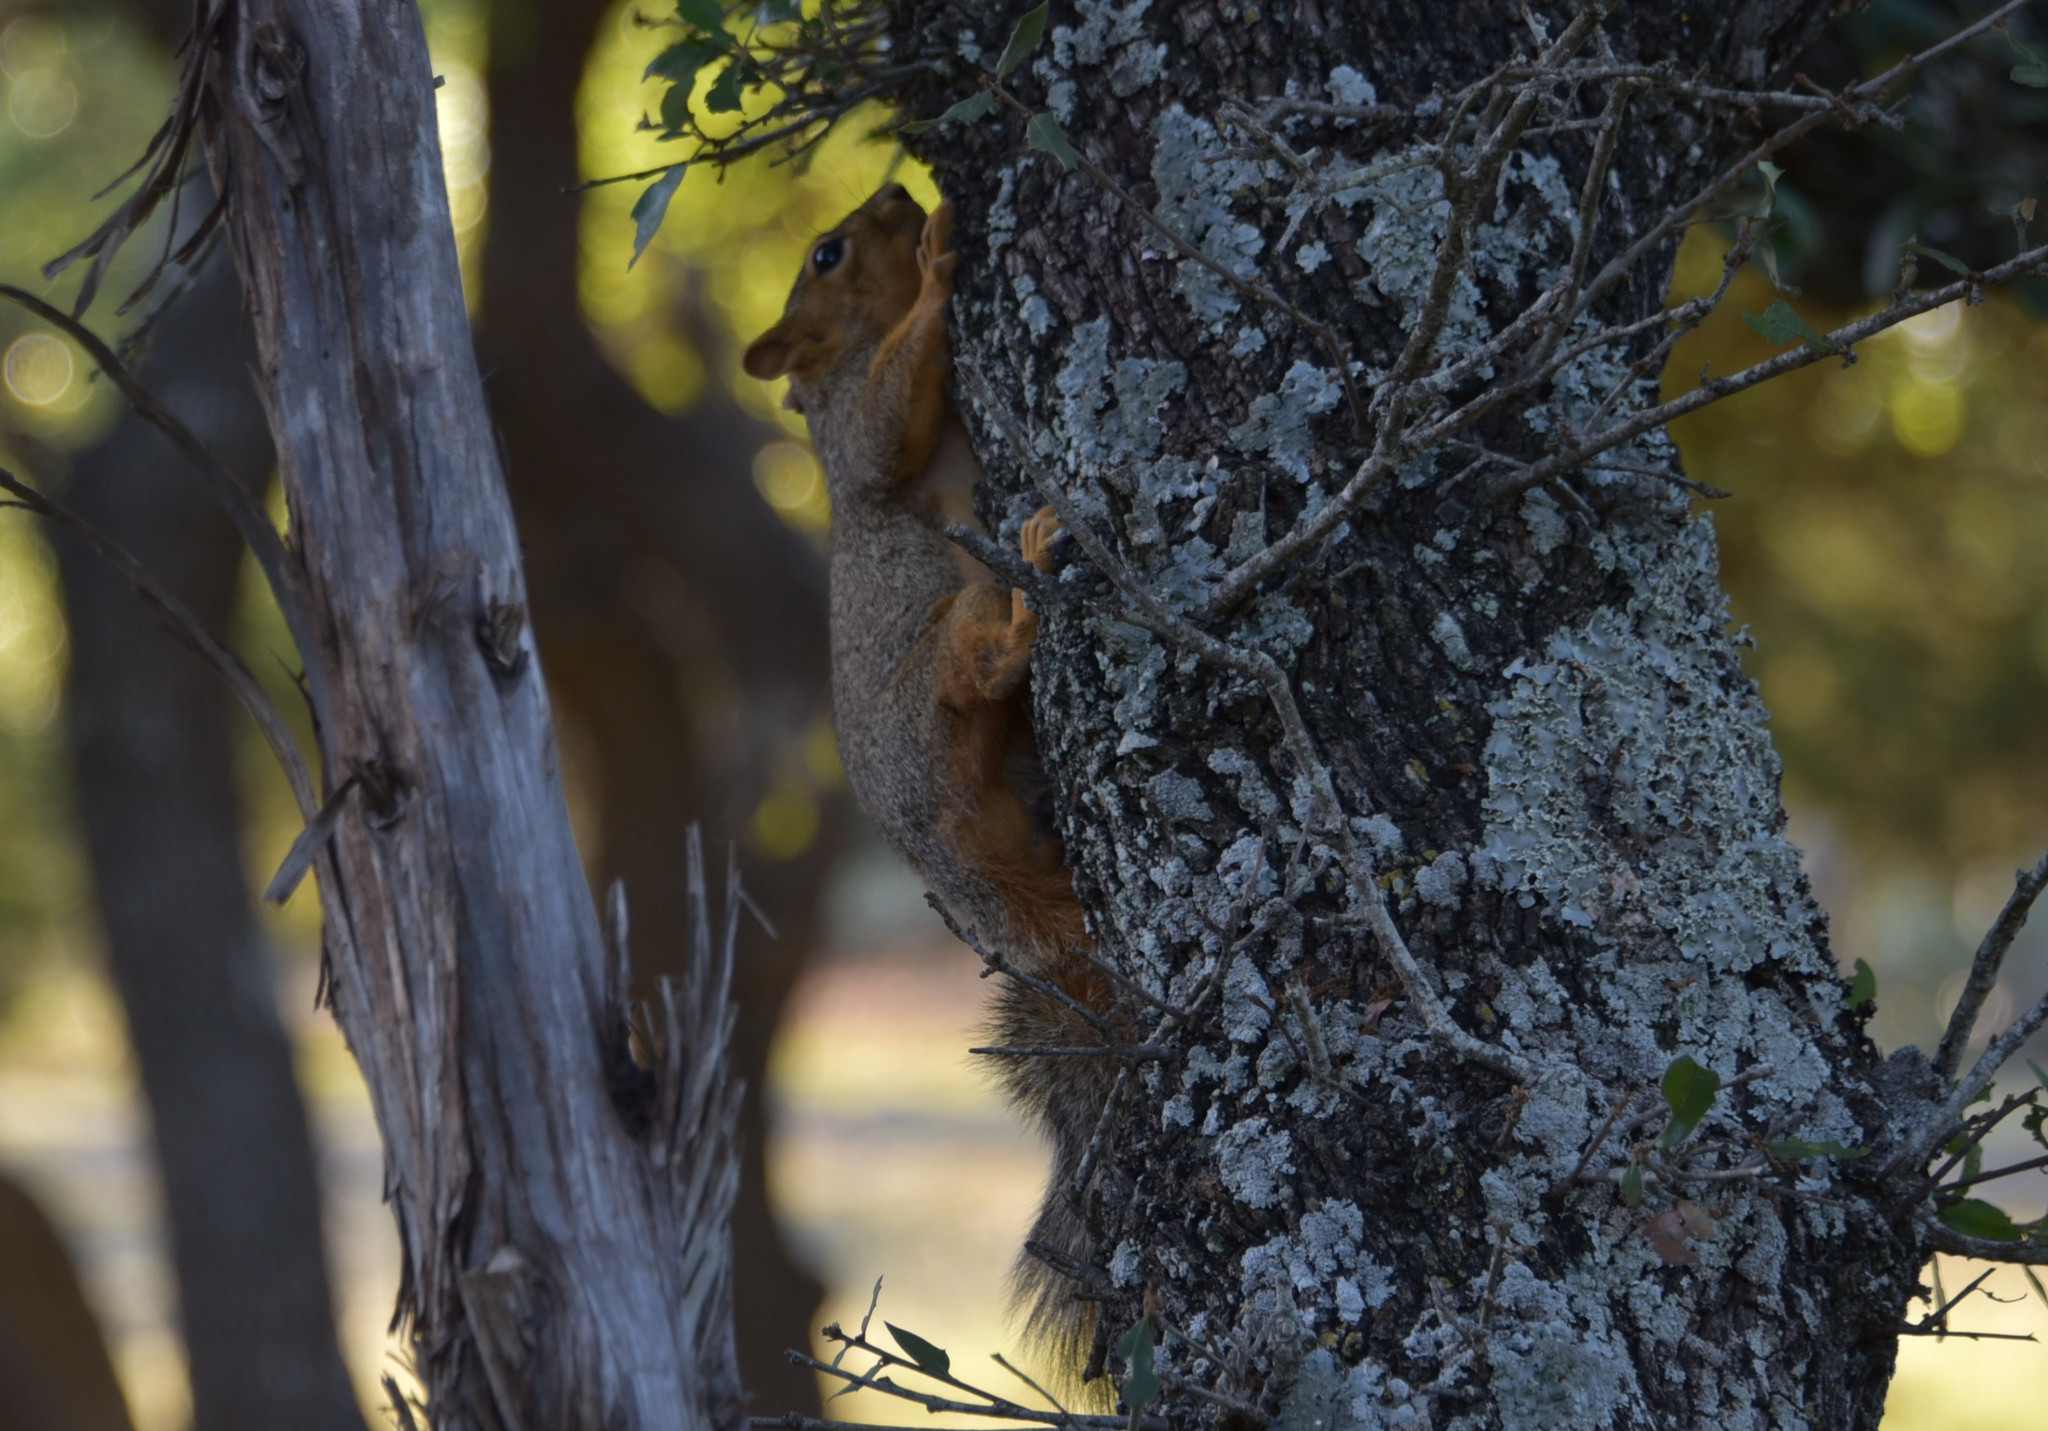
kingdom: Animalia
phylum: Chordata
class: Mammalia
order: Rodentia
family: Sciuridae
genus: Sciurus
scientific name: Sciurus niger
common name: Fox squirrel
